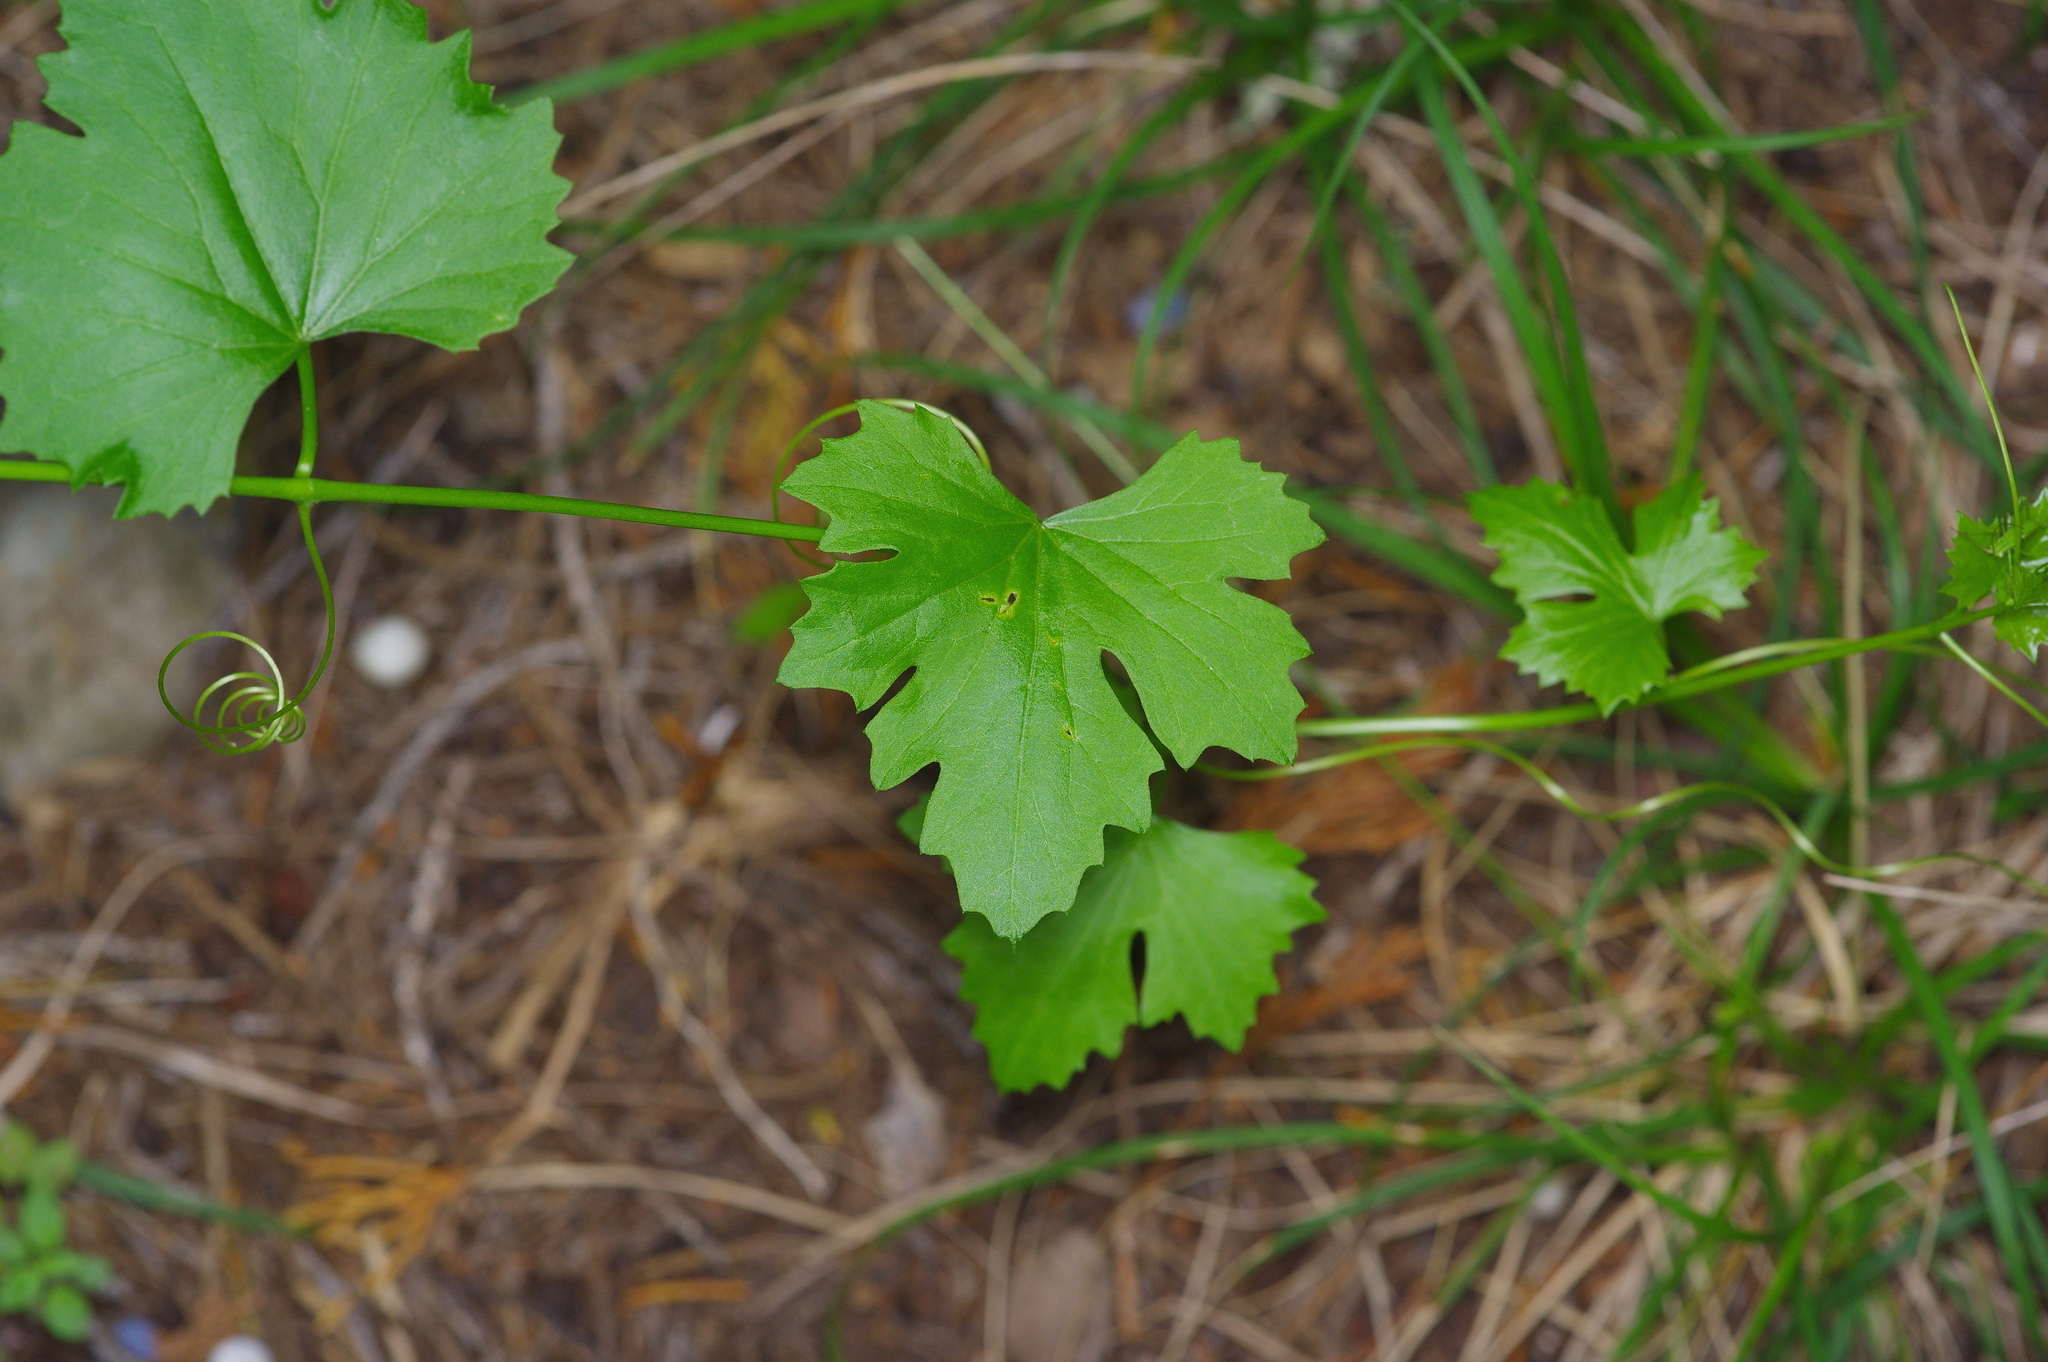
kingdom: Plantae
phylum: Tracheophyta
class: Magnoliopsida
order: Cucurbitales
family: Cucurbitaceae
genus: Melothria
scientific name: Melothria pendula
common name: Creeping-cucumber
